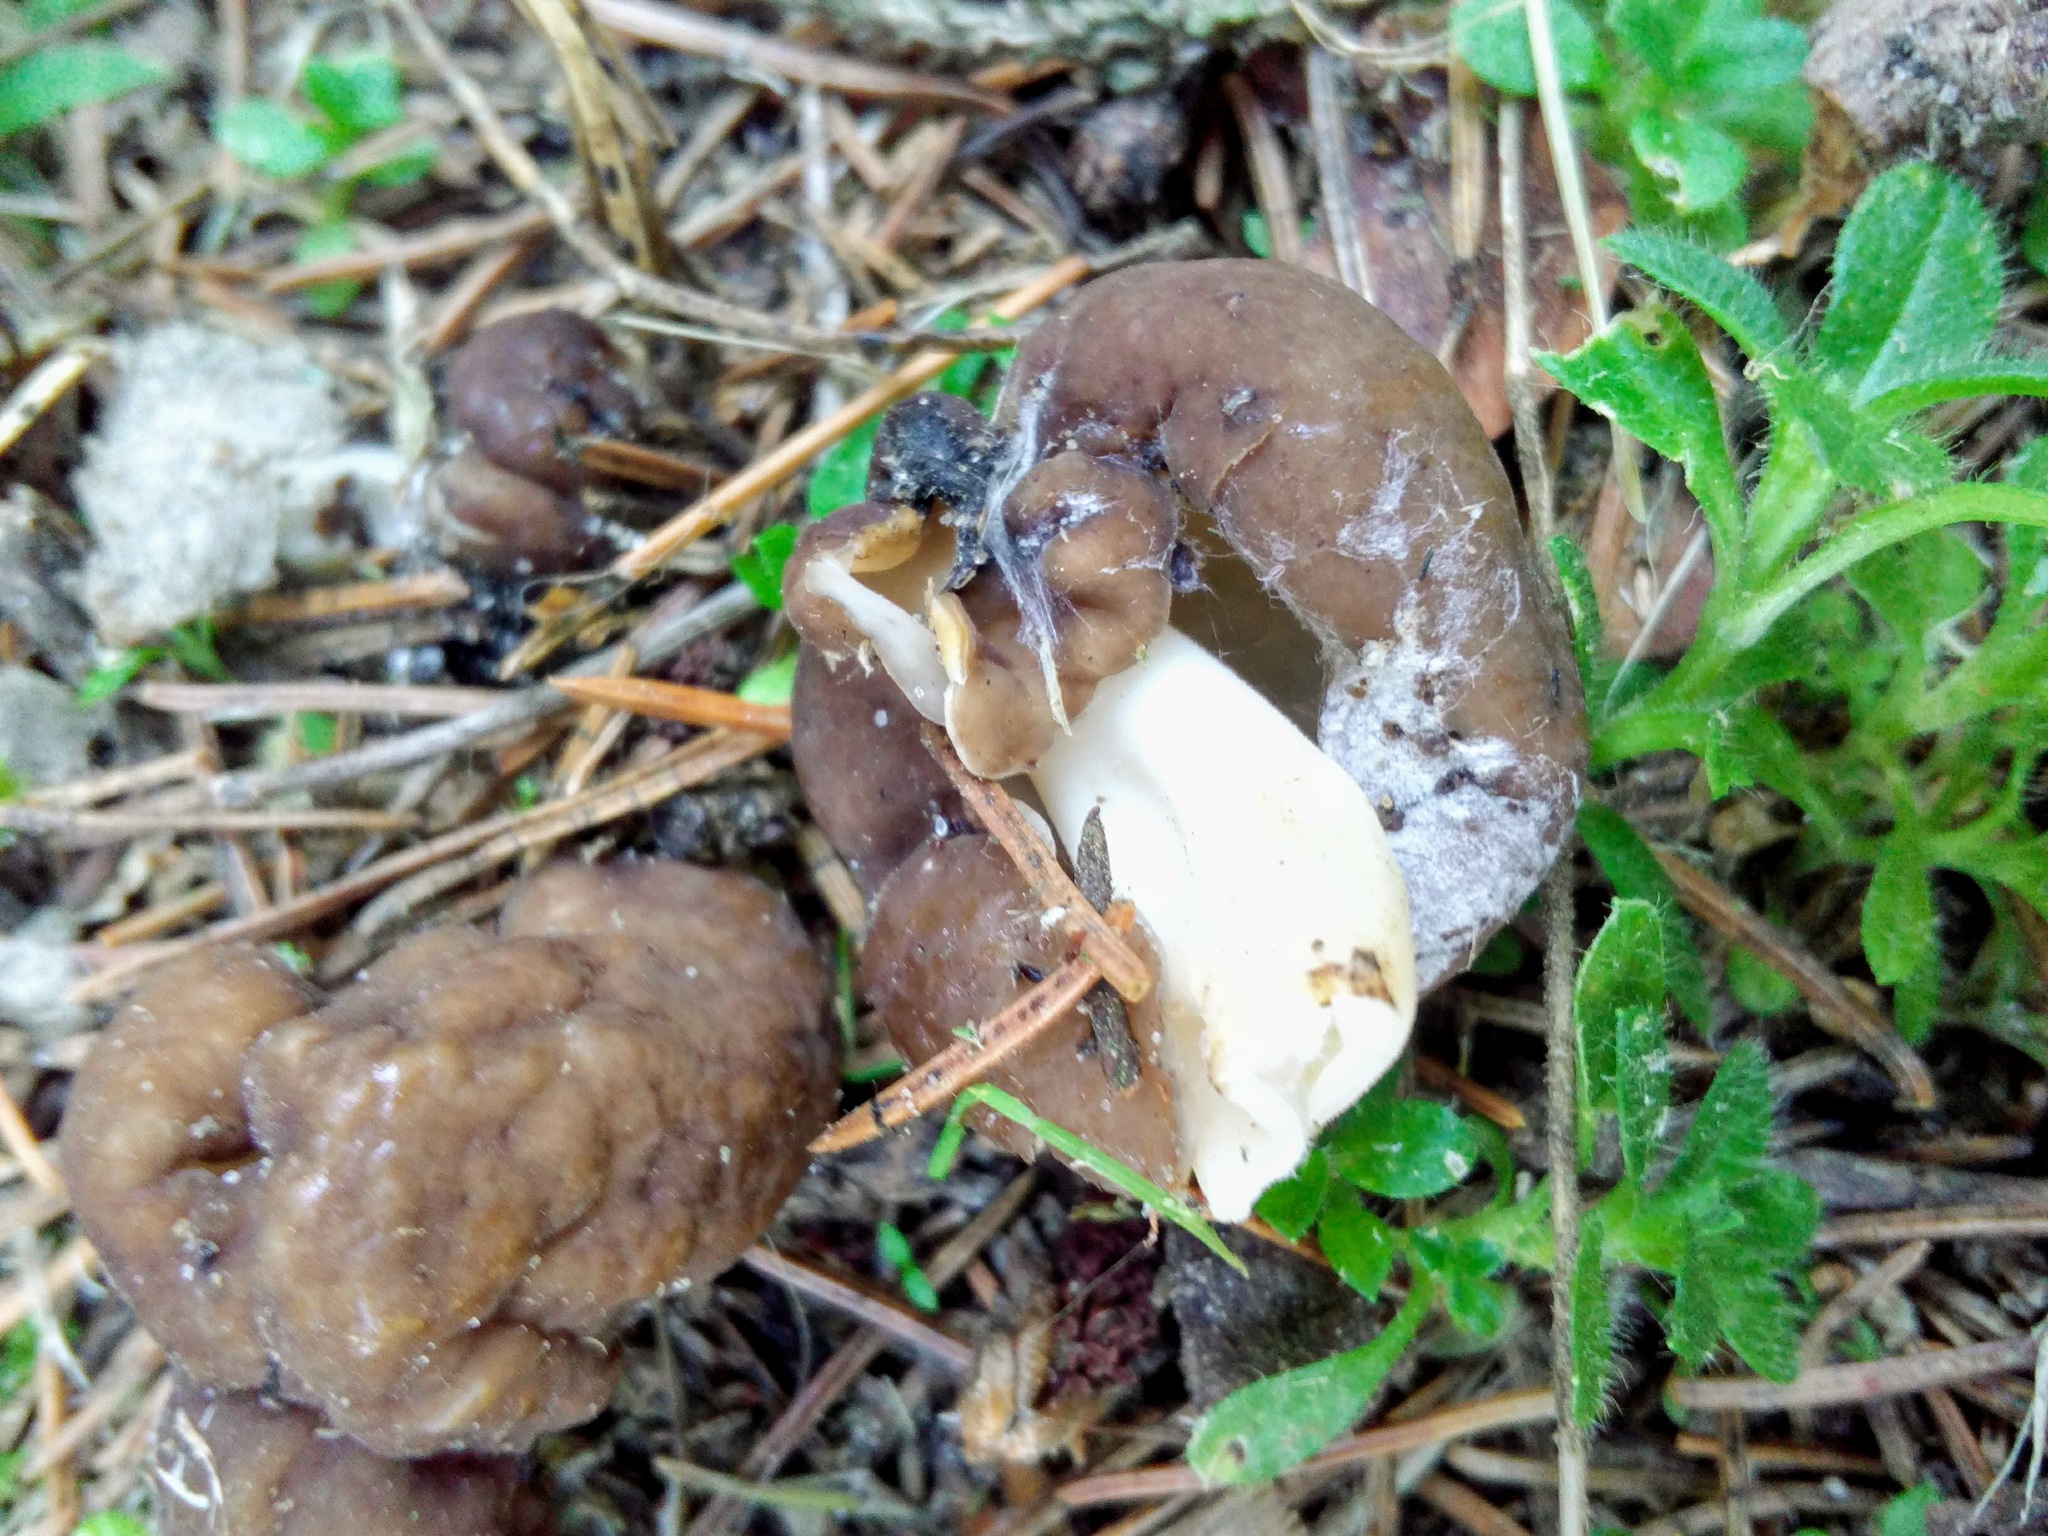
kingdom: Fungi
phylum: Ascomycota
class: Pezizomycetes
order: Pezizales
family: Helvellaceae
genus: Helvella
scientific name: Helvella elastica
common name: Elastic saddle
